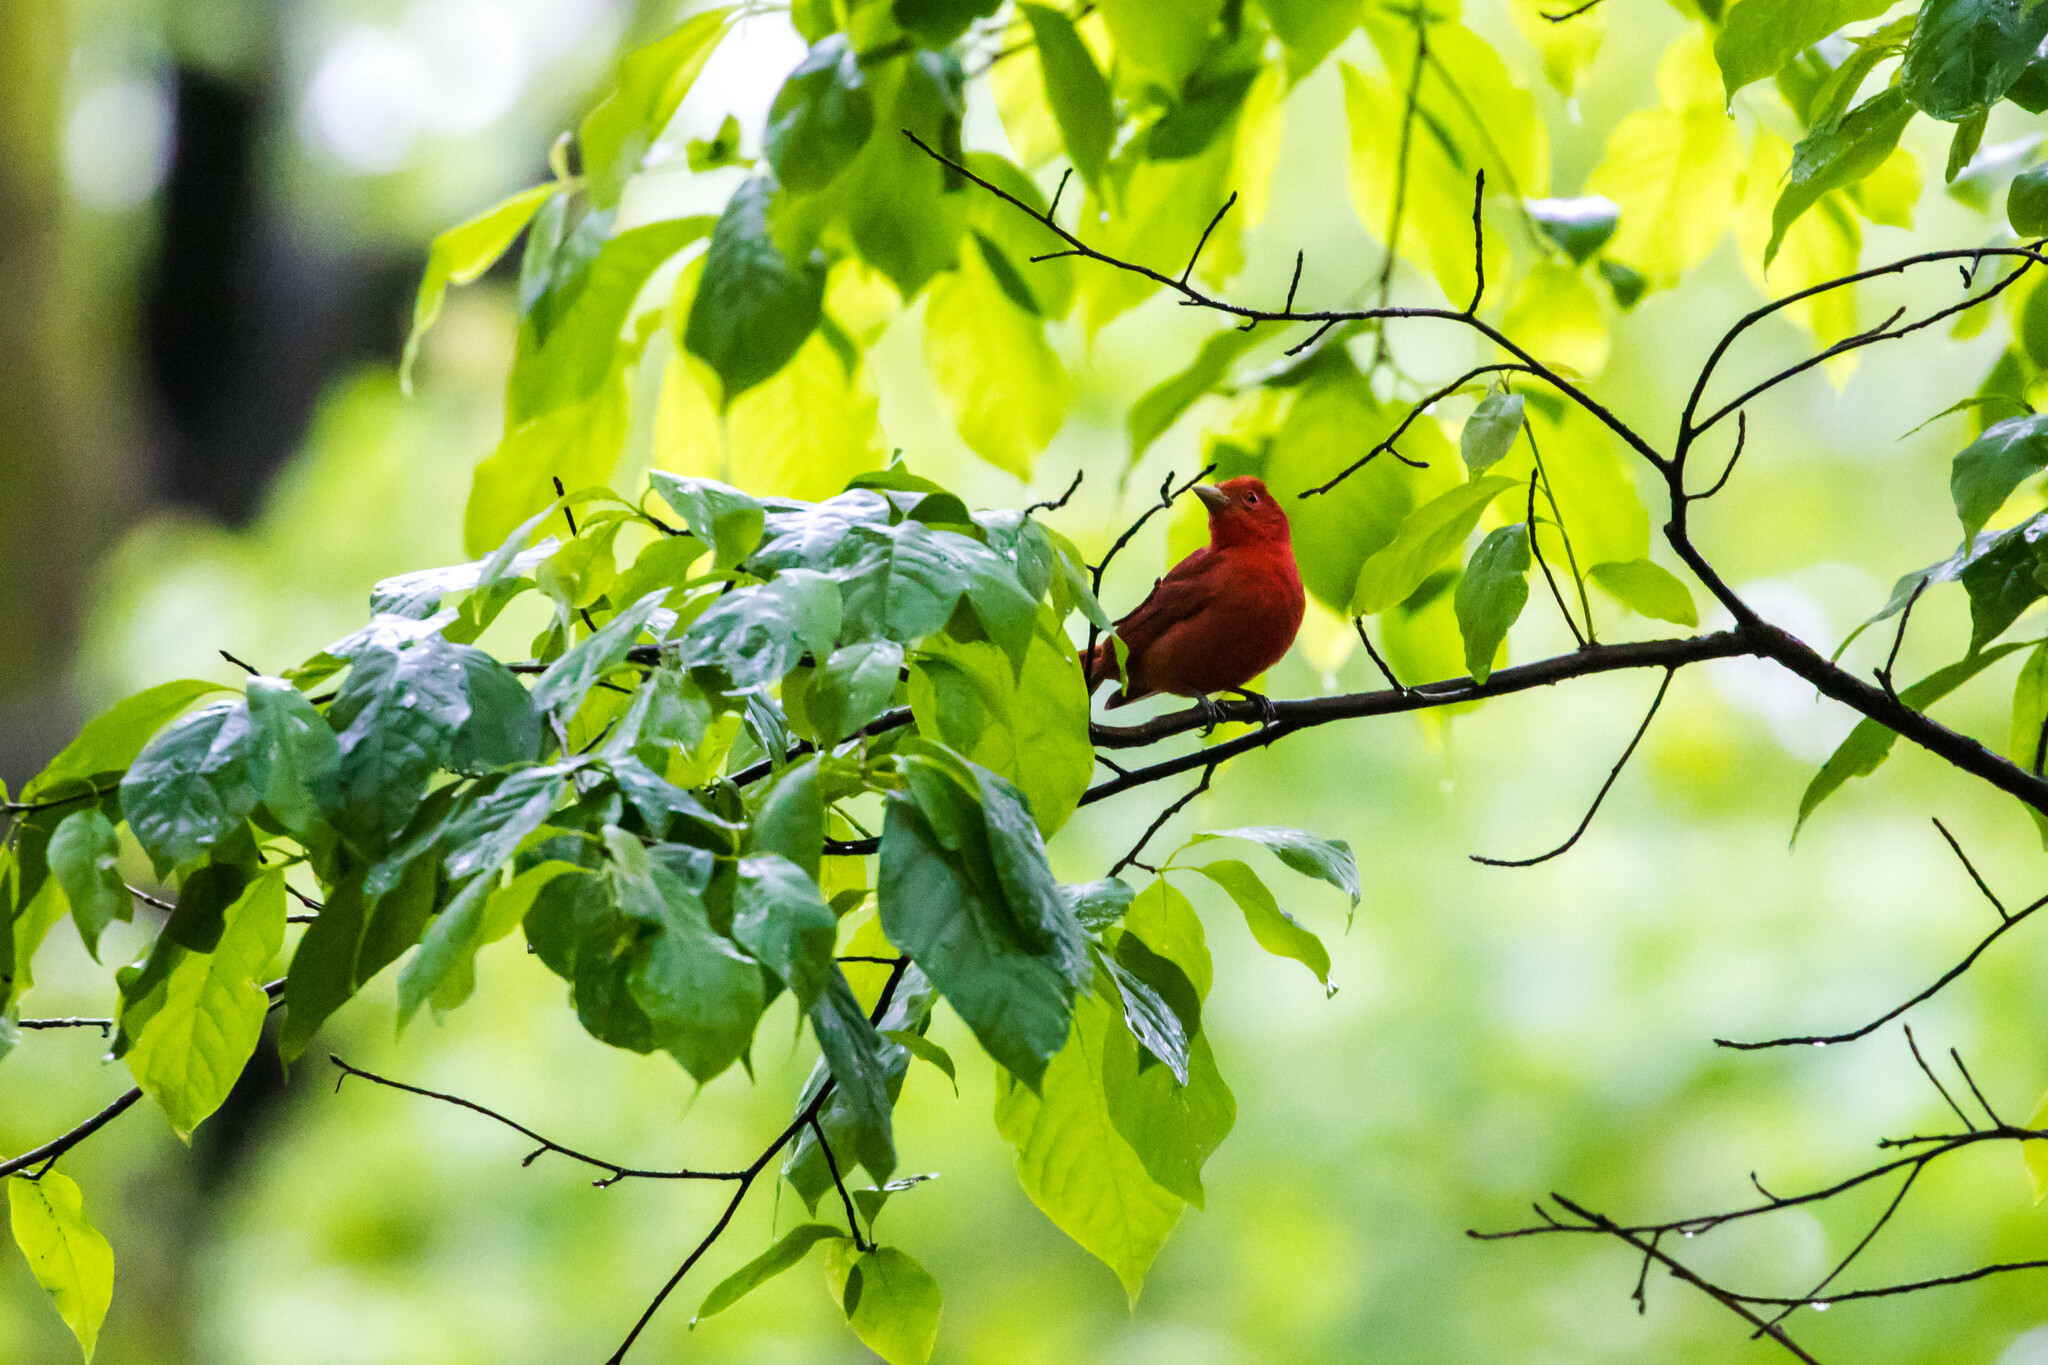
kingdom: Animalia
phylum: Chordata
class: Aves
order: Passeriformes
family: Cardinalidae
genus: Piranga
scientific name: Piranga rubra
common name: Summer tanager
